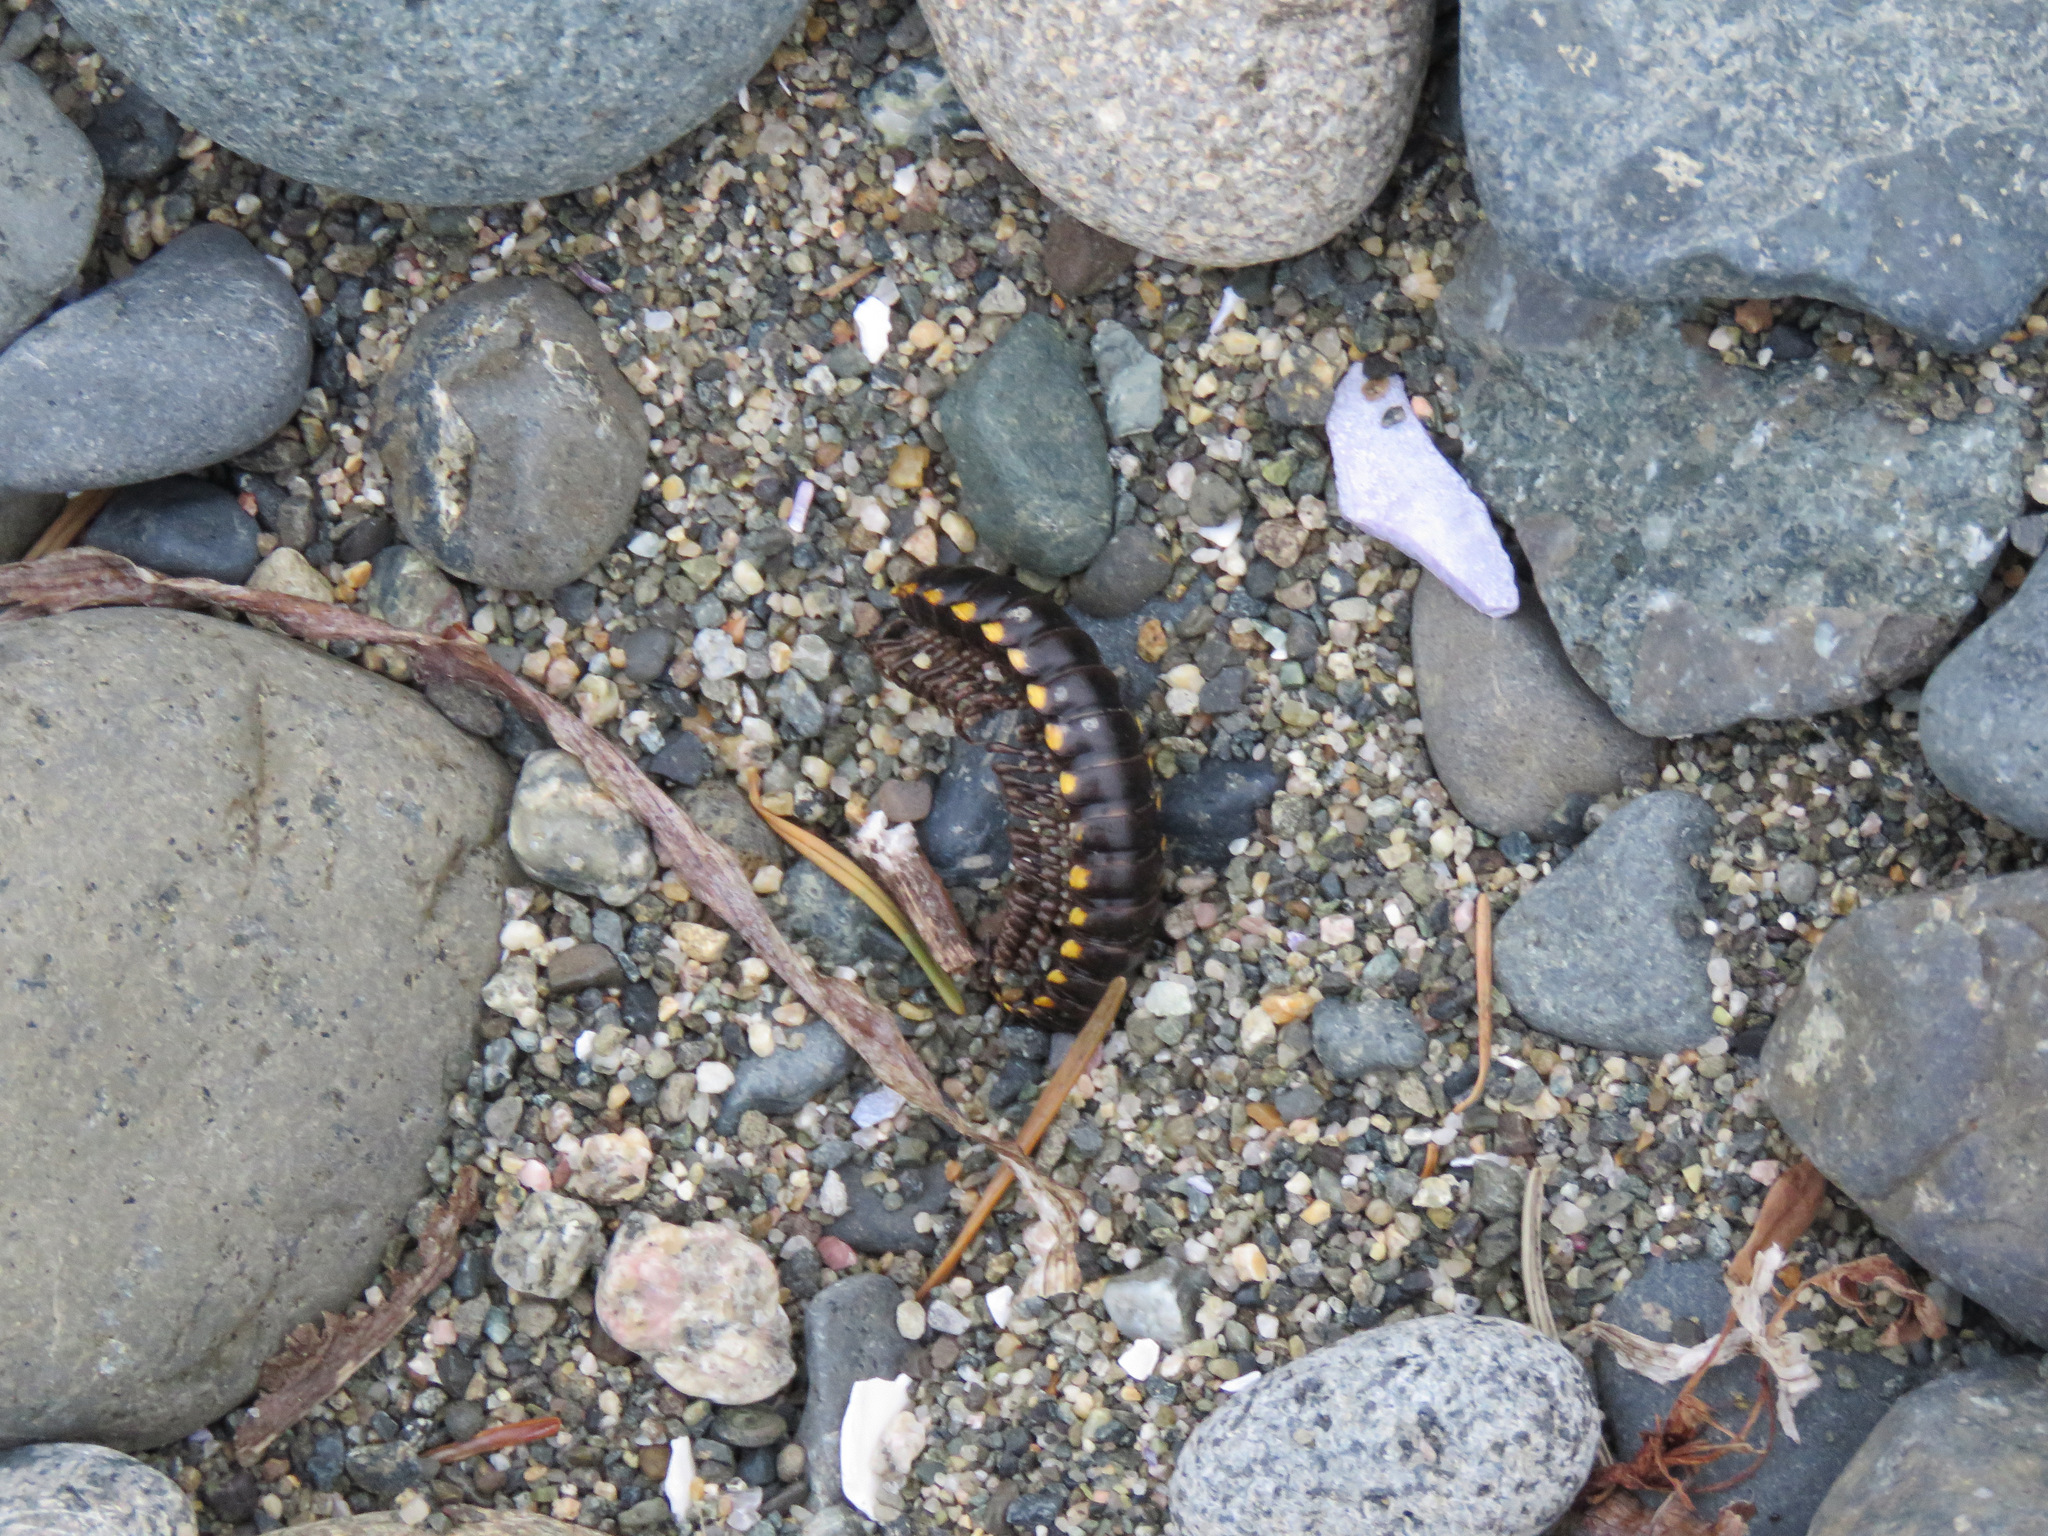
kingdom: Animalia
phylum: Arthropoda
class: Diplopoda
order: Polydesmida
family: Xystodesmidae
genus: Harpaphe
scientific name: Harpaphe haydeniana
